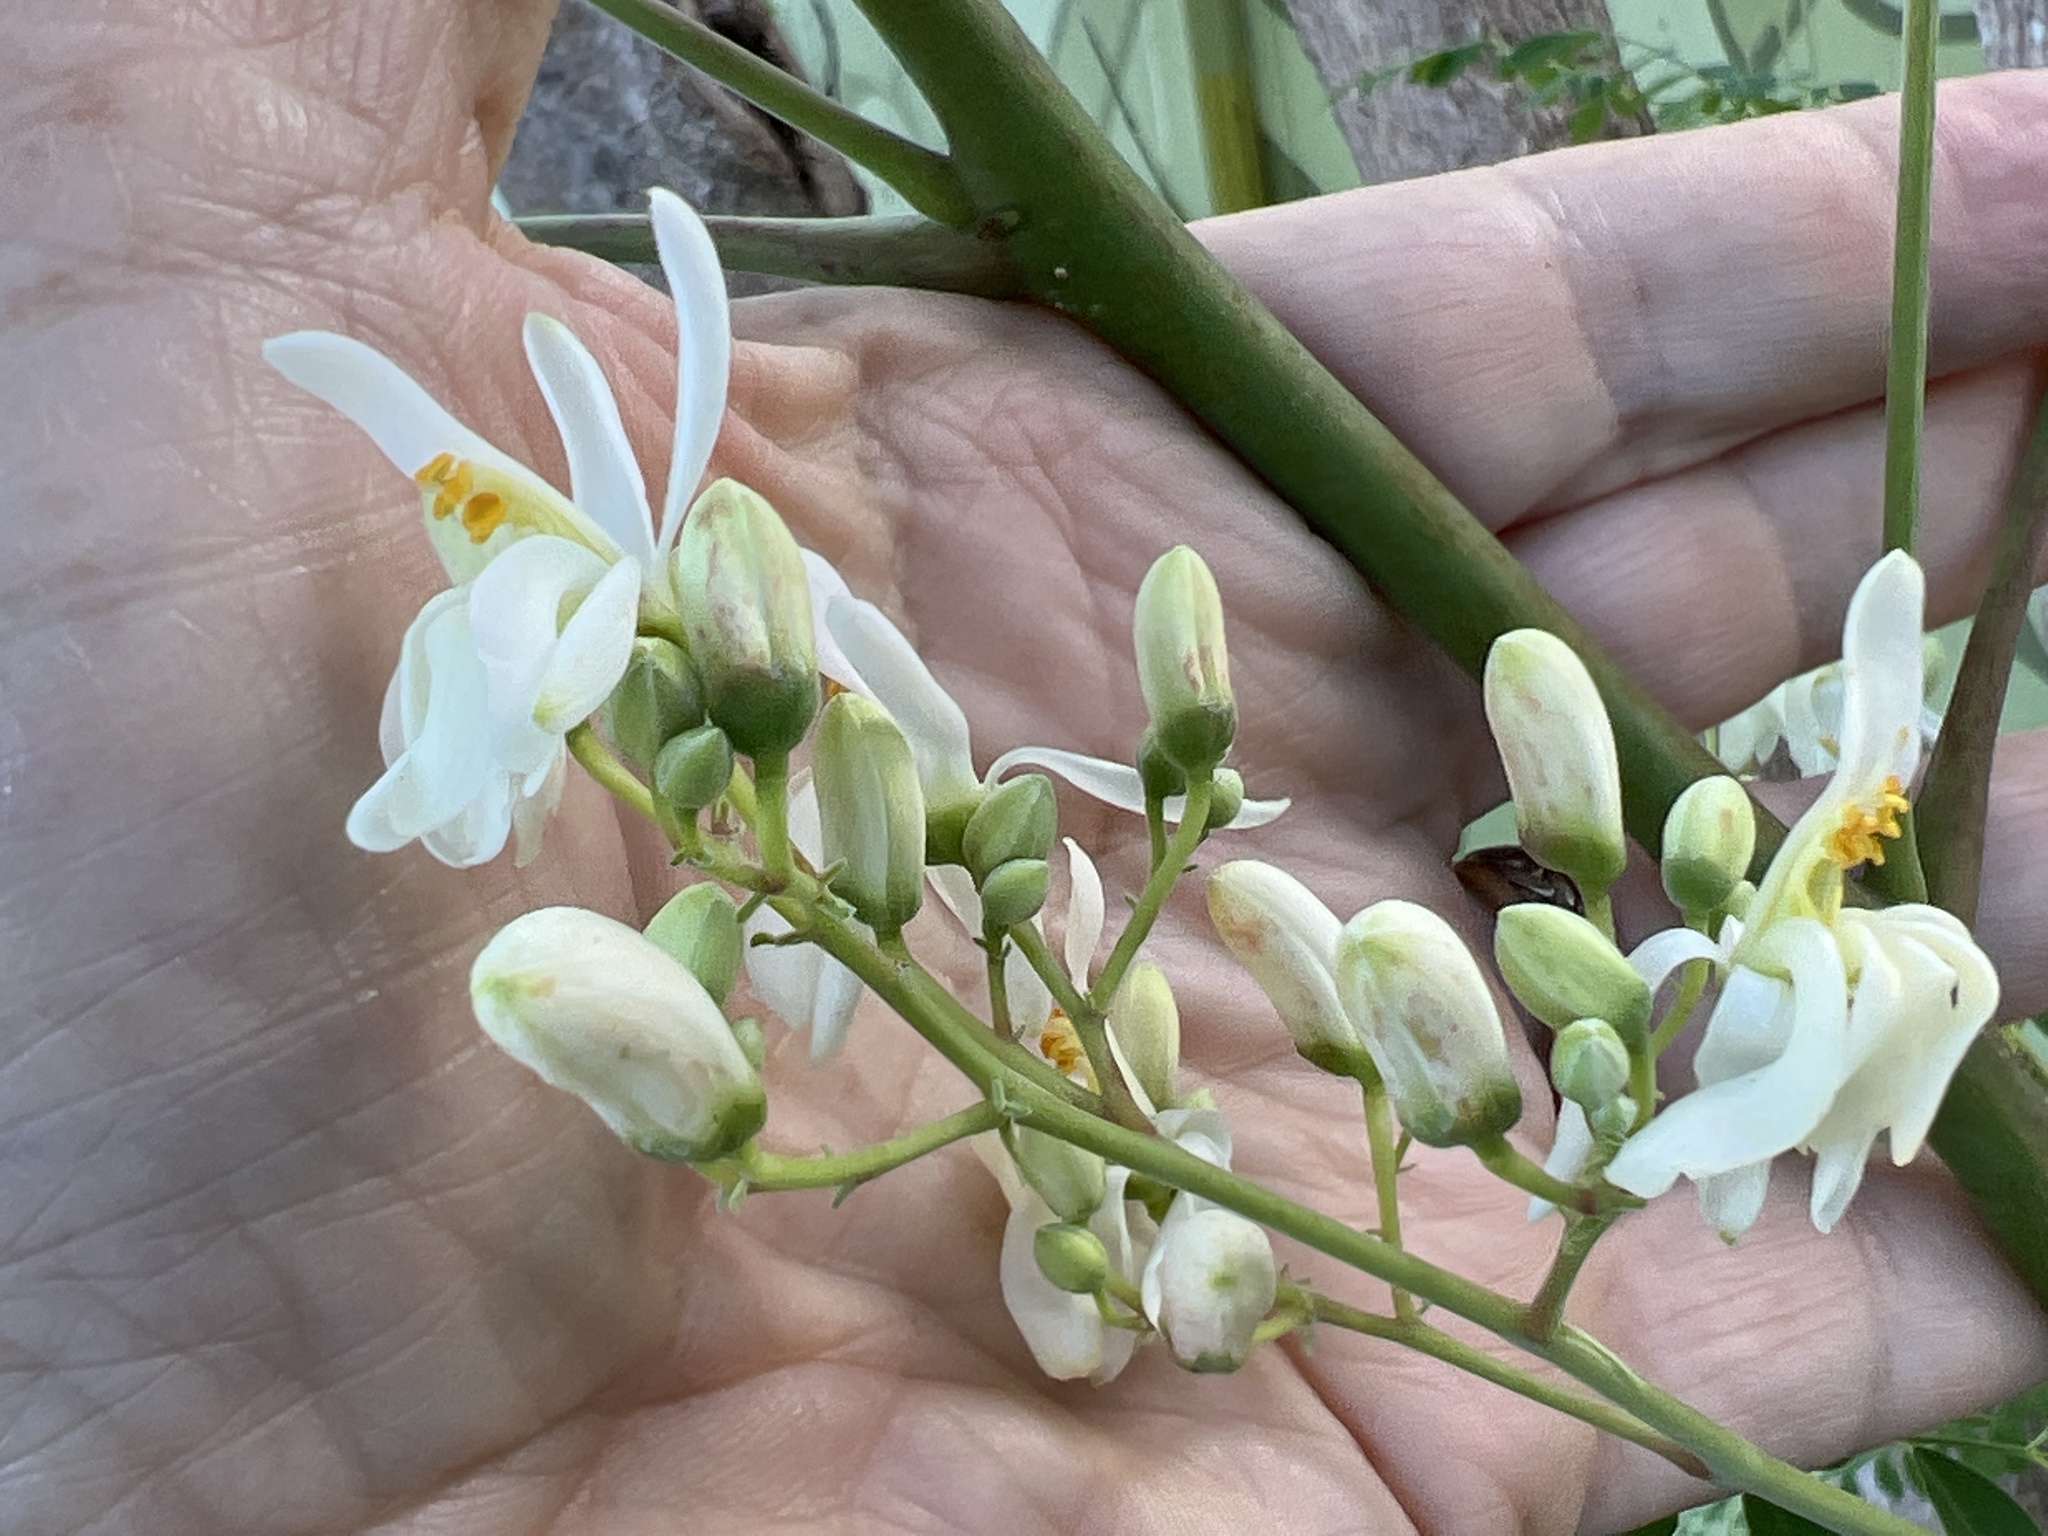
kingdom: Plantae
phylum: Tracheophyta
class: Magnoliopsida
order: Brassicales
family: Moringaceae
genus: Moringa
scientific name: Moringa oleifera
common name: Horseradish-tree
